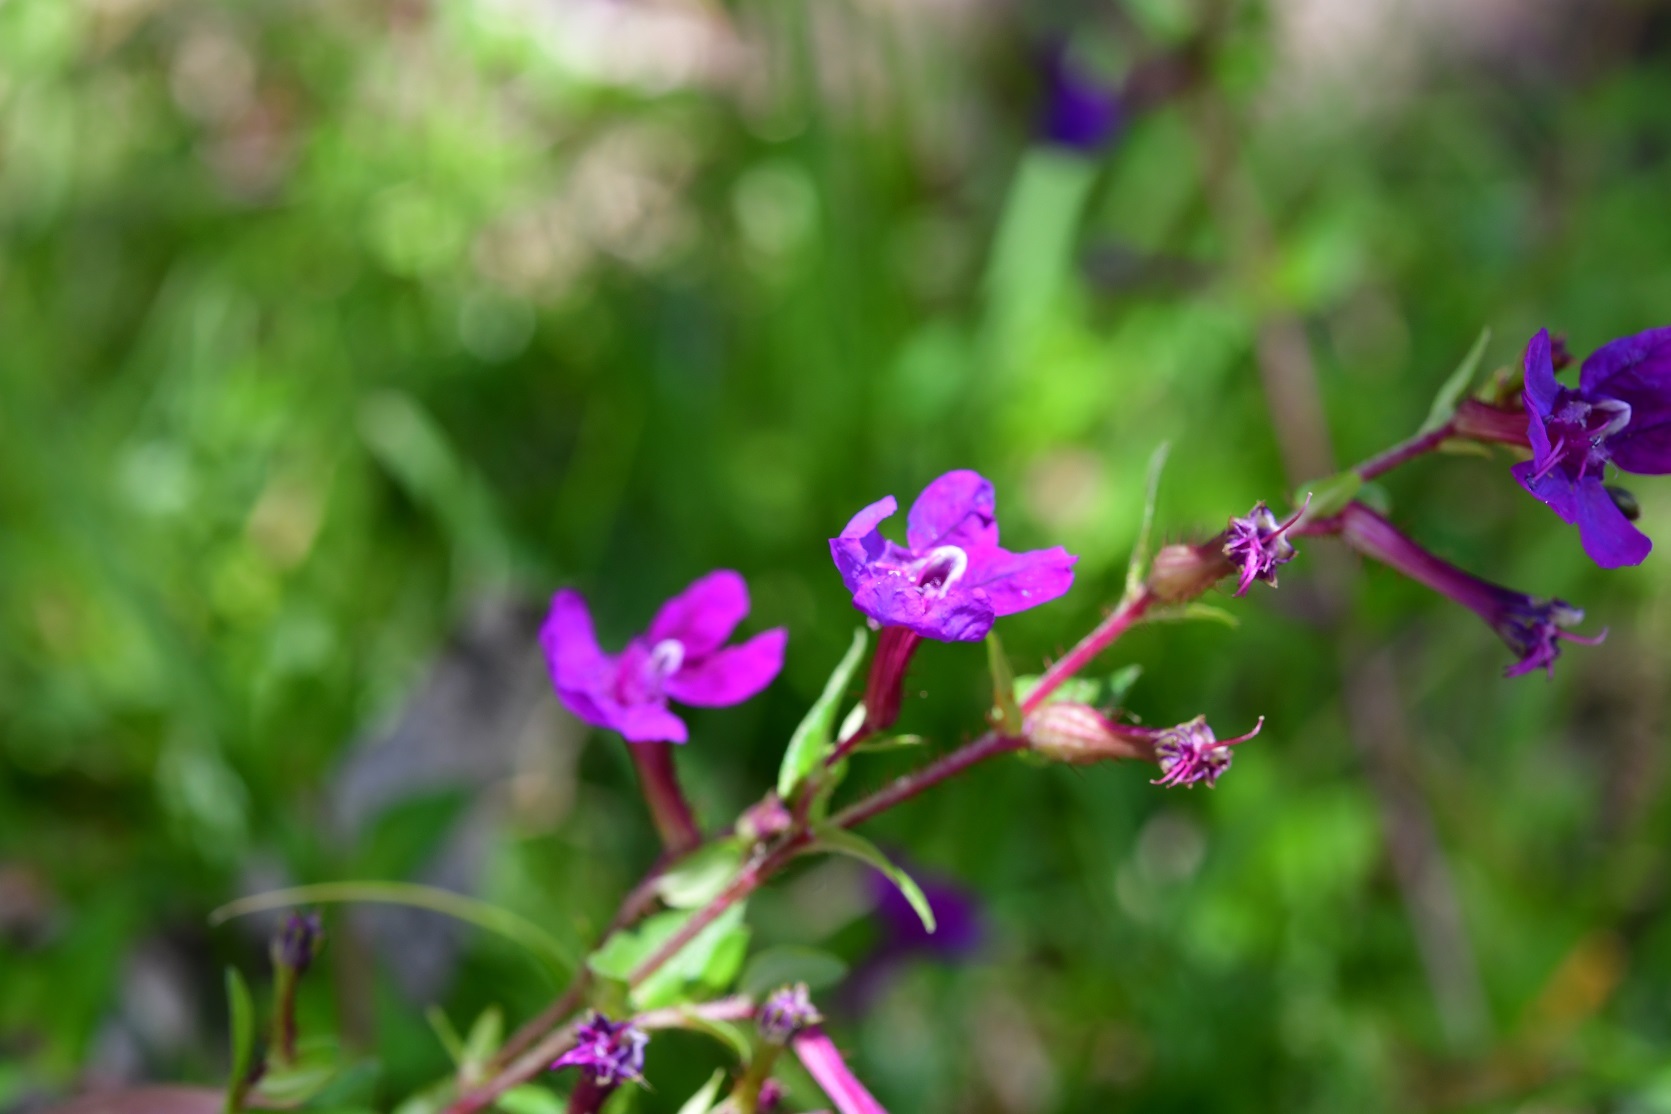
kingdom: Plantae
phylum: Tracheophyta
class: Magnoliopsida
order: Myrtales
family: Lythraceae
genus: Cuphea
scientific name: Cuphea aequipetala
